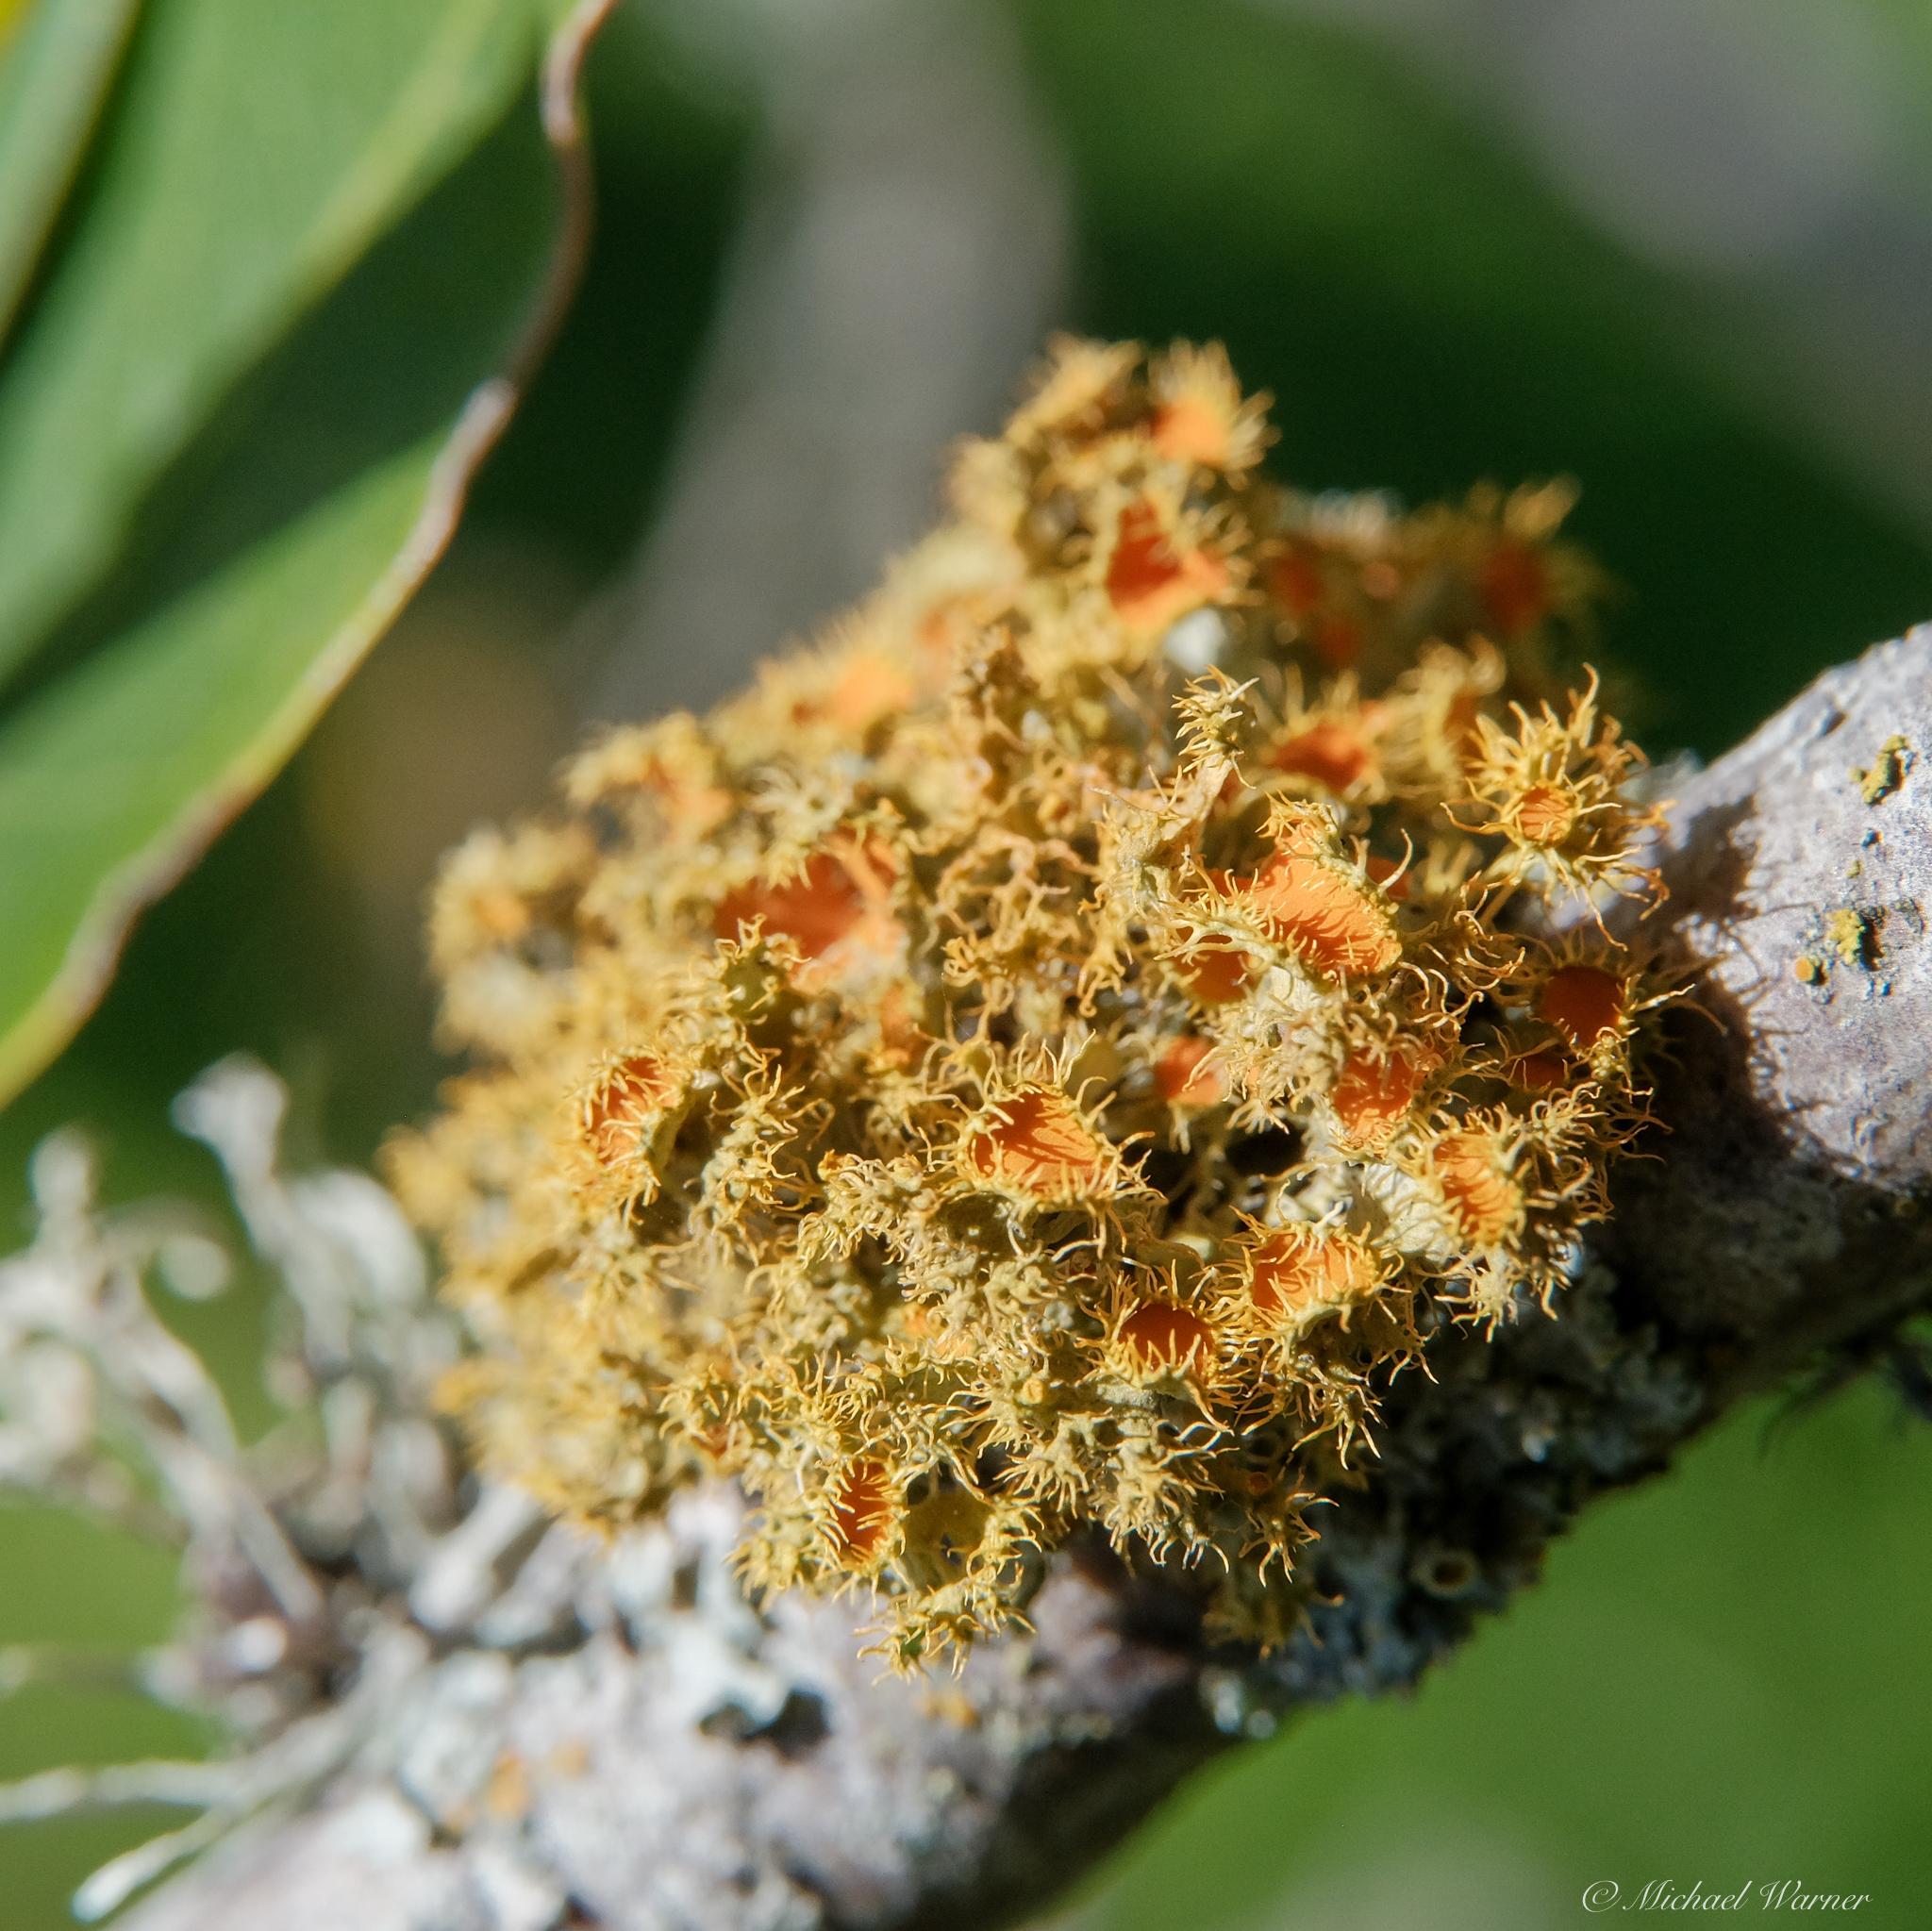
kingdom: Fungi
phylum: Ascomycota
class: Lecanoromycetes
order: Teloschistales
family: Teloschistaceae
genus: Niorma
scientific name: Niorma chrysophthalma
